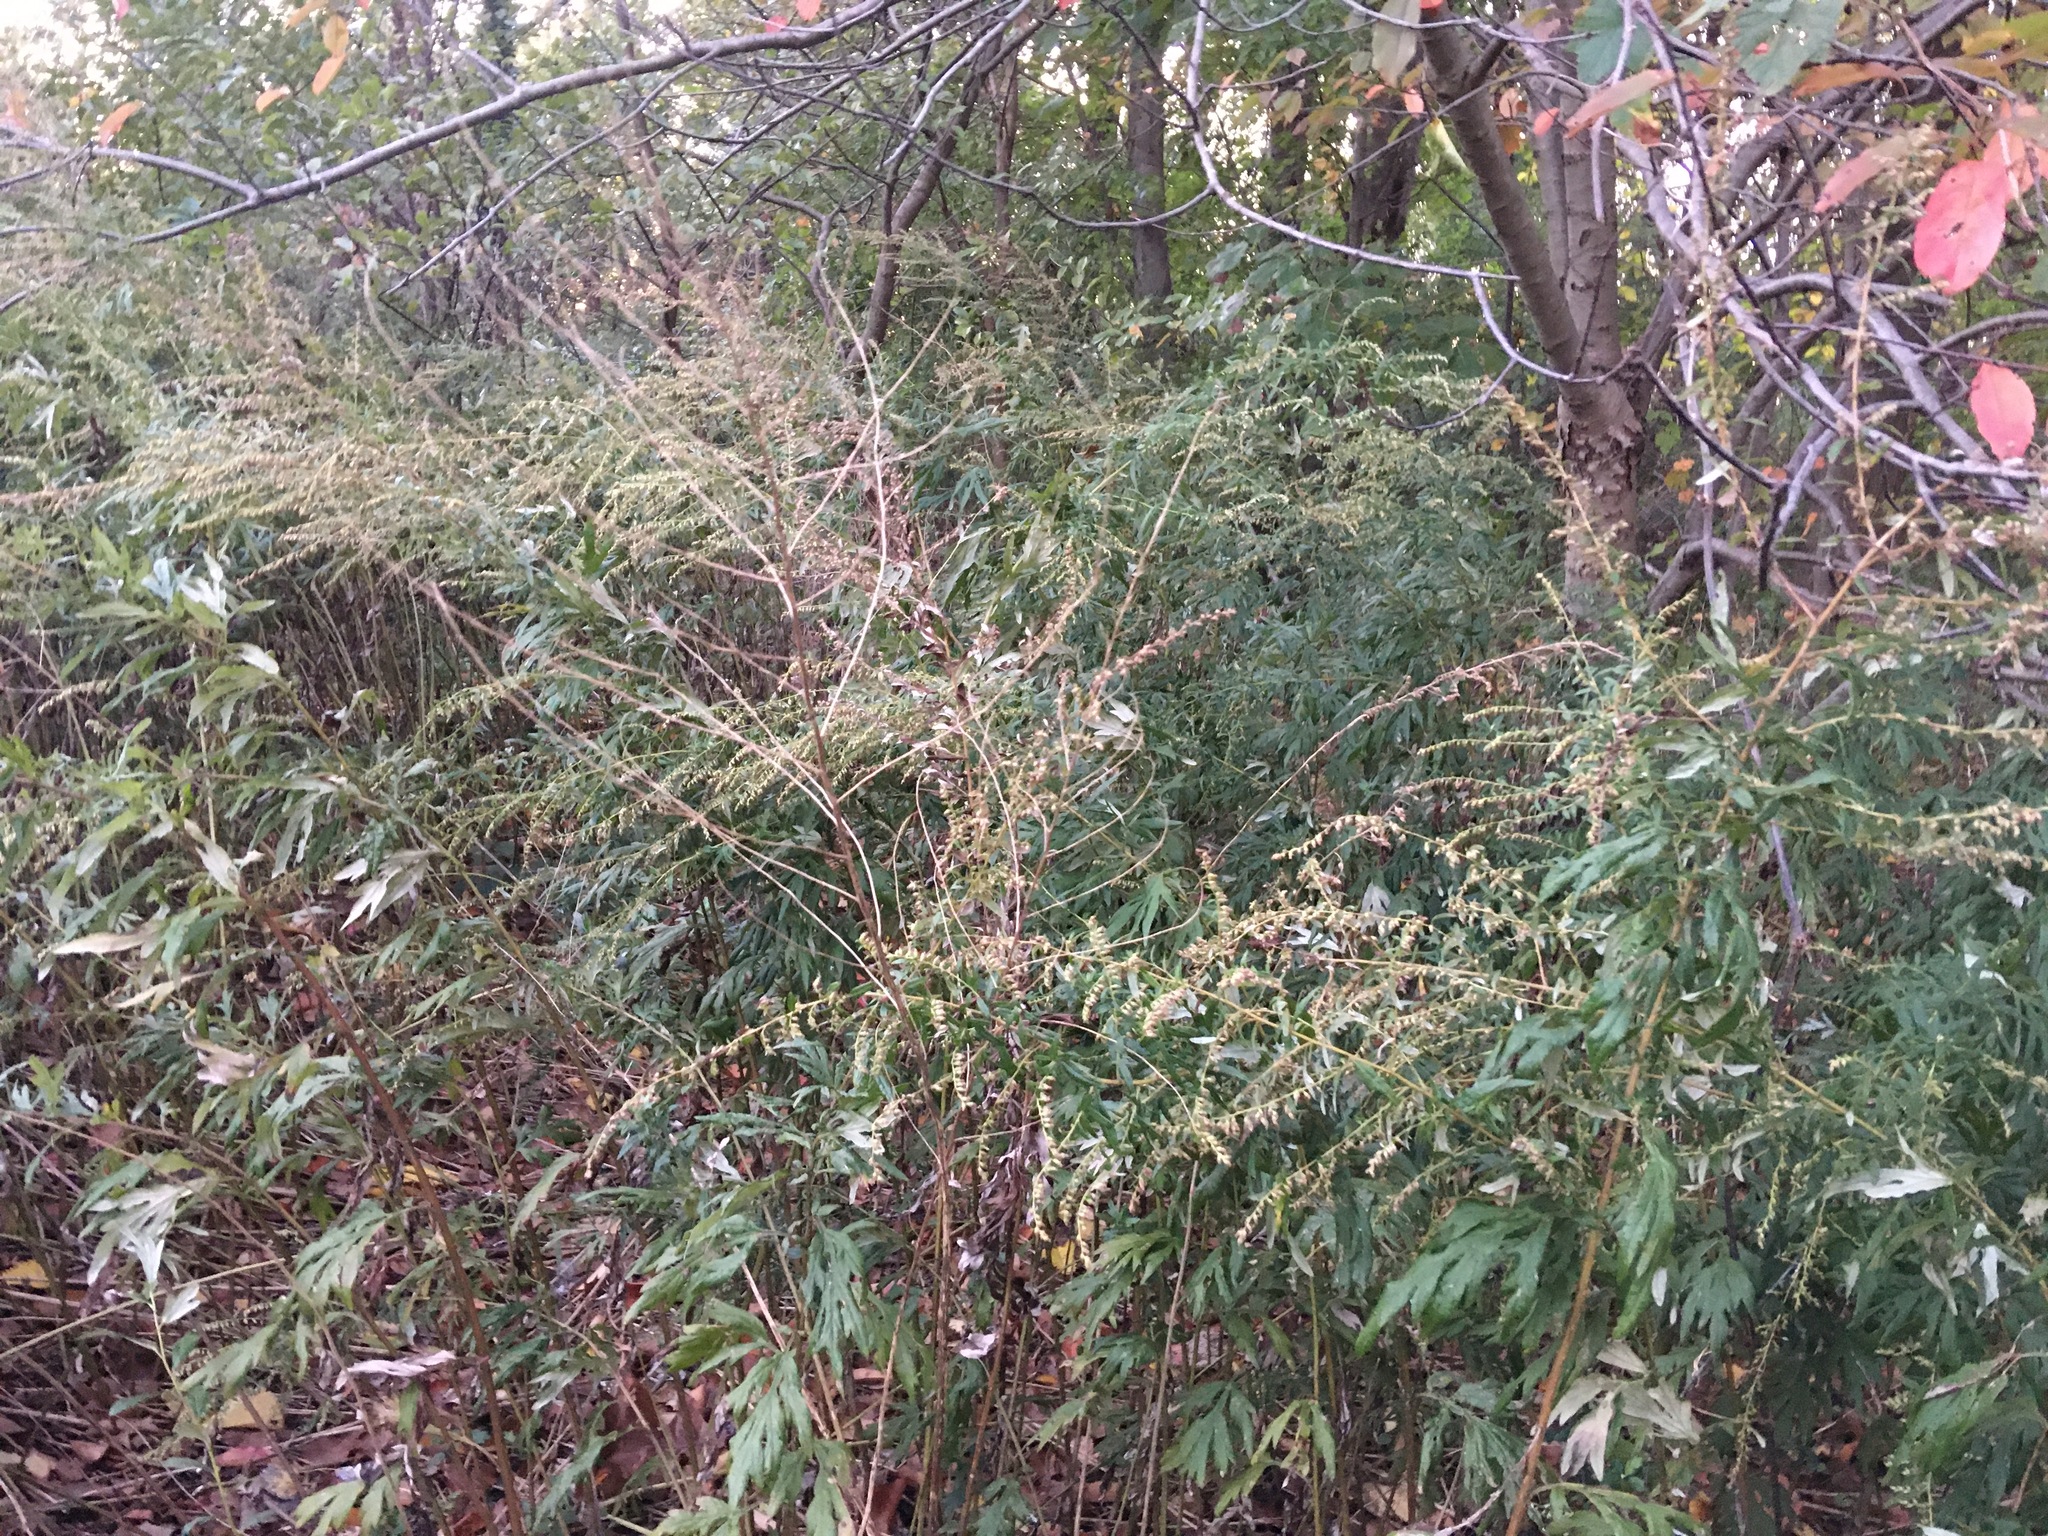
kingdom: Plantae
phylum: Tracheophyta
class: Magnoliopsida
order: Asterales
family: Asteraceae
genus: Artemisia
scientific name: Artemisia vulgaris
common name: Mugwort
